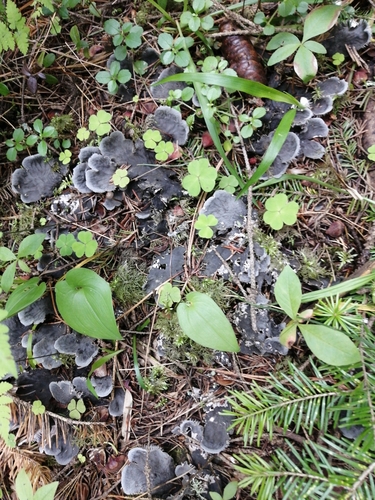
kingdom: Fungi
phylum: Ascomycota
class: Lecanoromycetes
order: Peltigerales
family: Peltigeraceae
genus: Peltigera
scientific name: Peltigera
